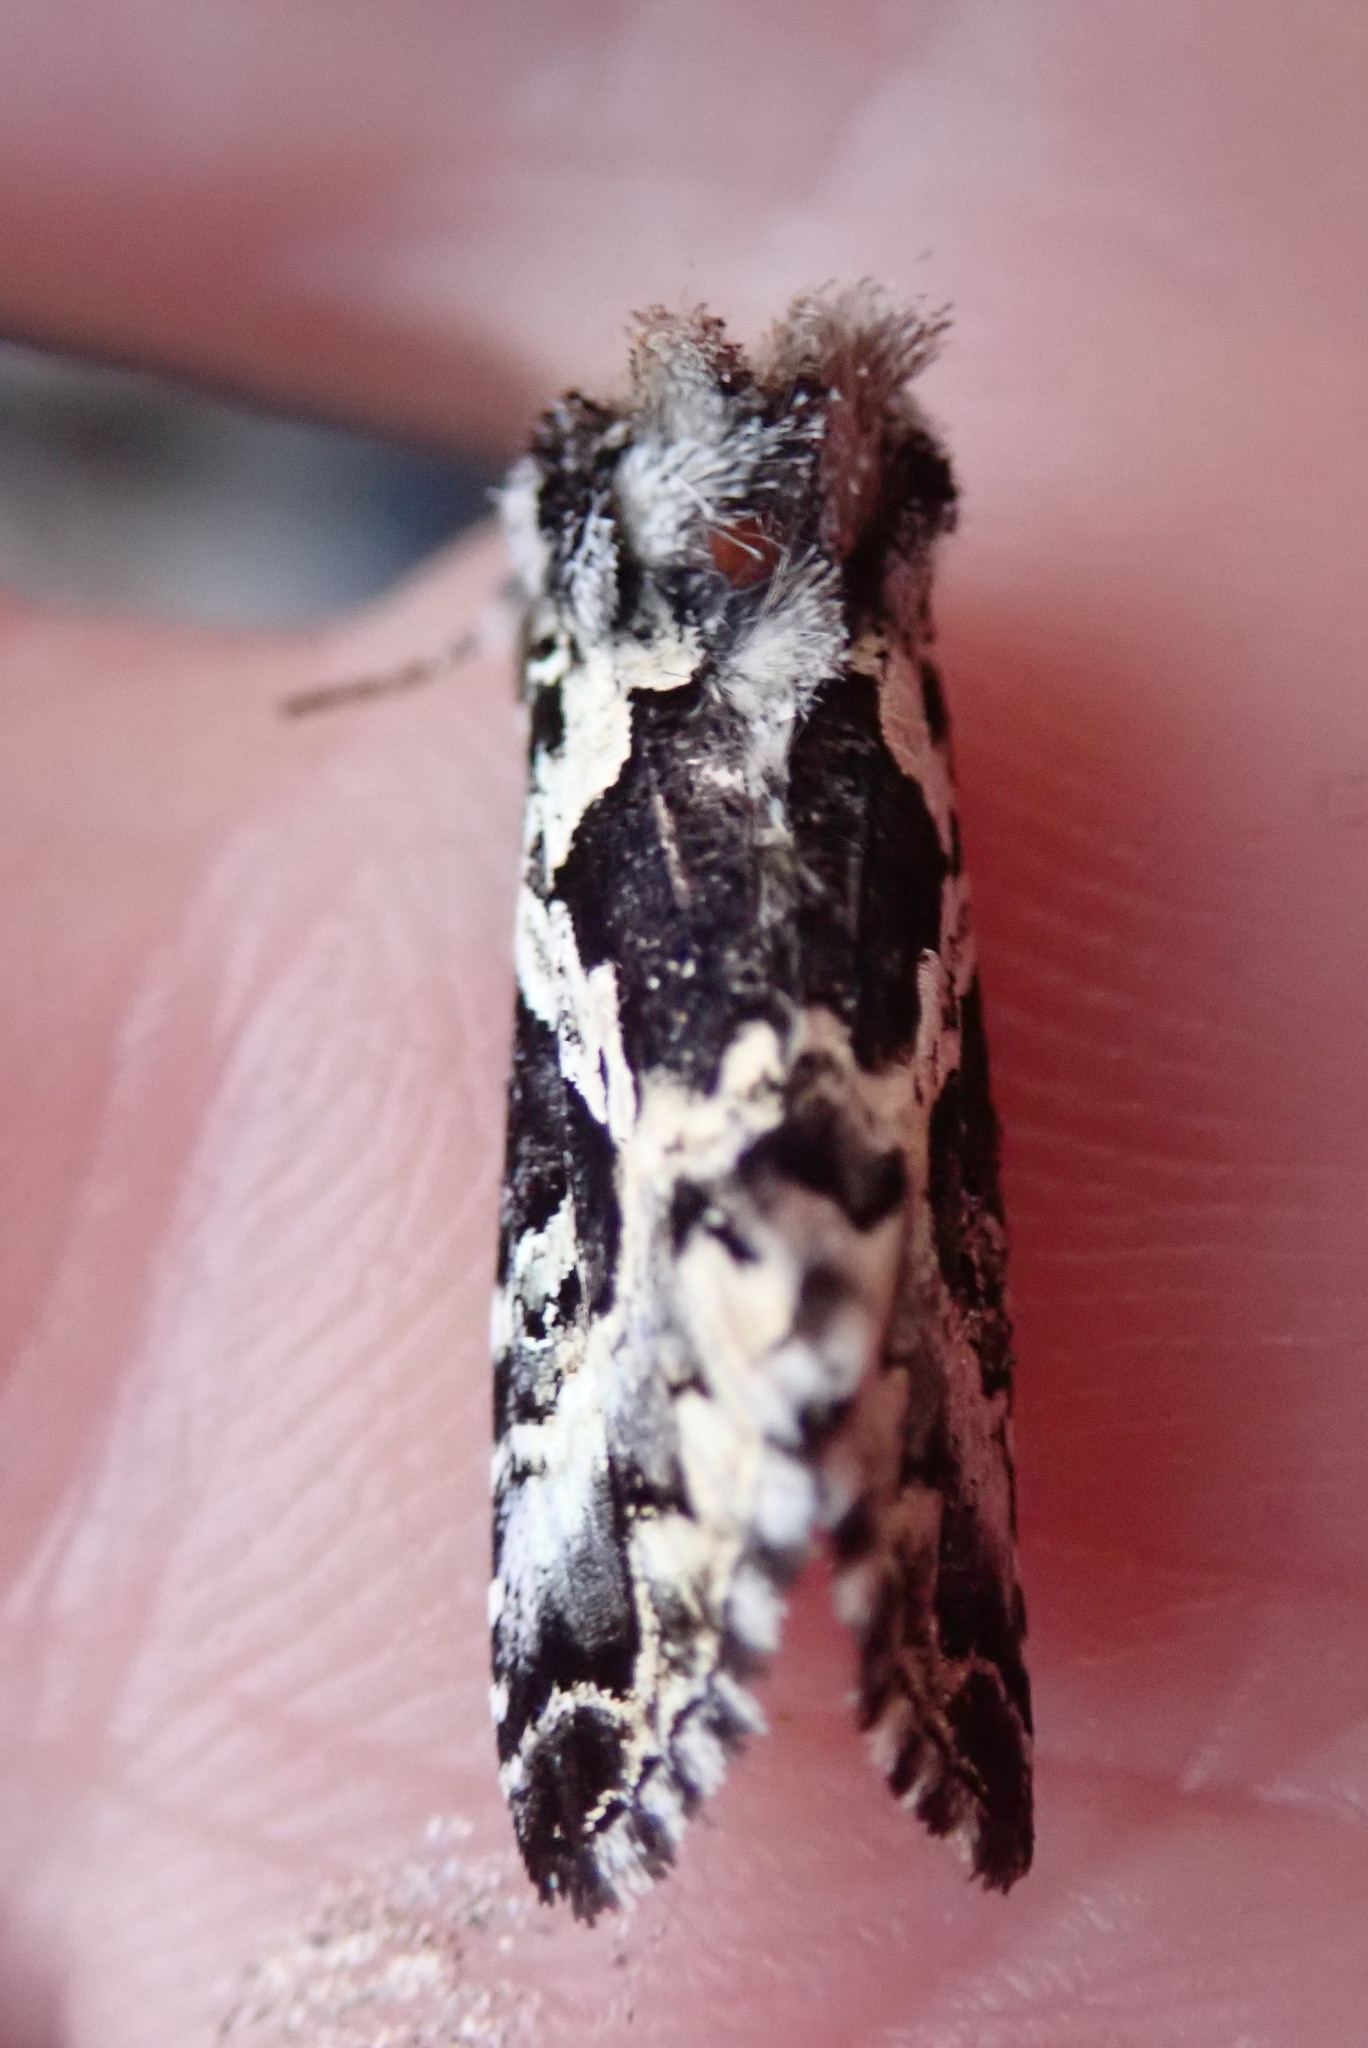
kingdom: Animalia
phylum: Arthropoda
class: Insecta
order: Lepidoptera
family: Noctuidae
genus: Syngrapha
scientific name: Syngrapha rectangula
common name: Angulated cutworm
